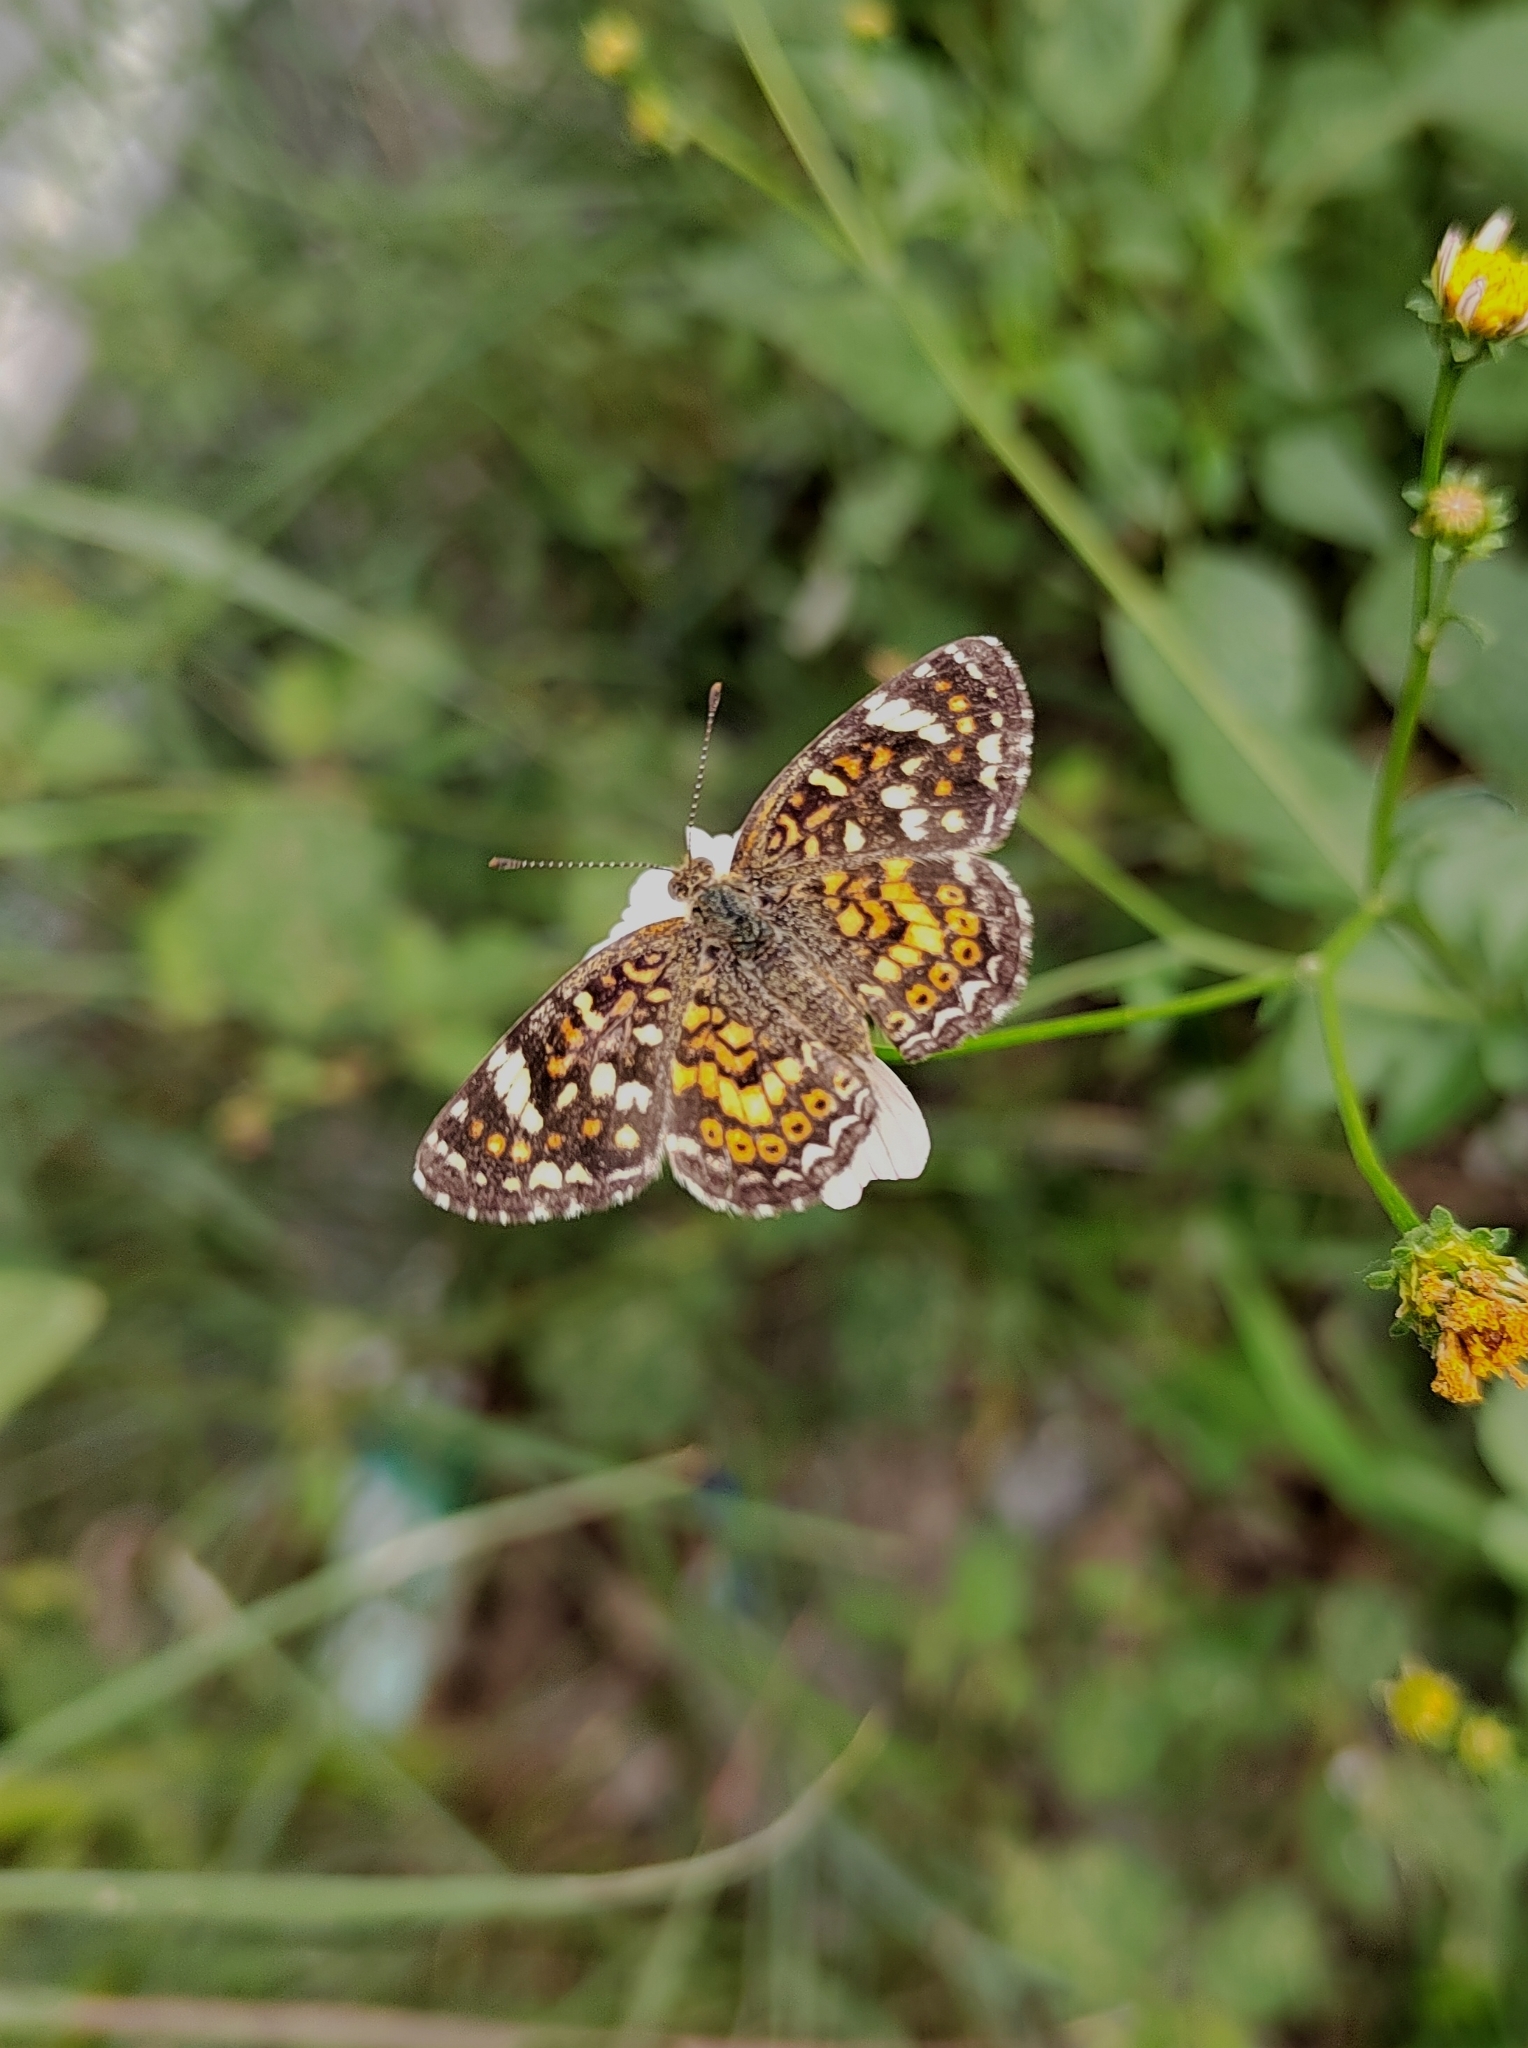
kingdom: Animalia
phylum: Arthropoda
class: Insecta
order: Lepidoptera
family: Nymphalidae
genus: Phyciodes
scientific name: Phyciodes picta
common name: Painted crescent
